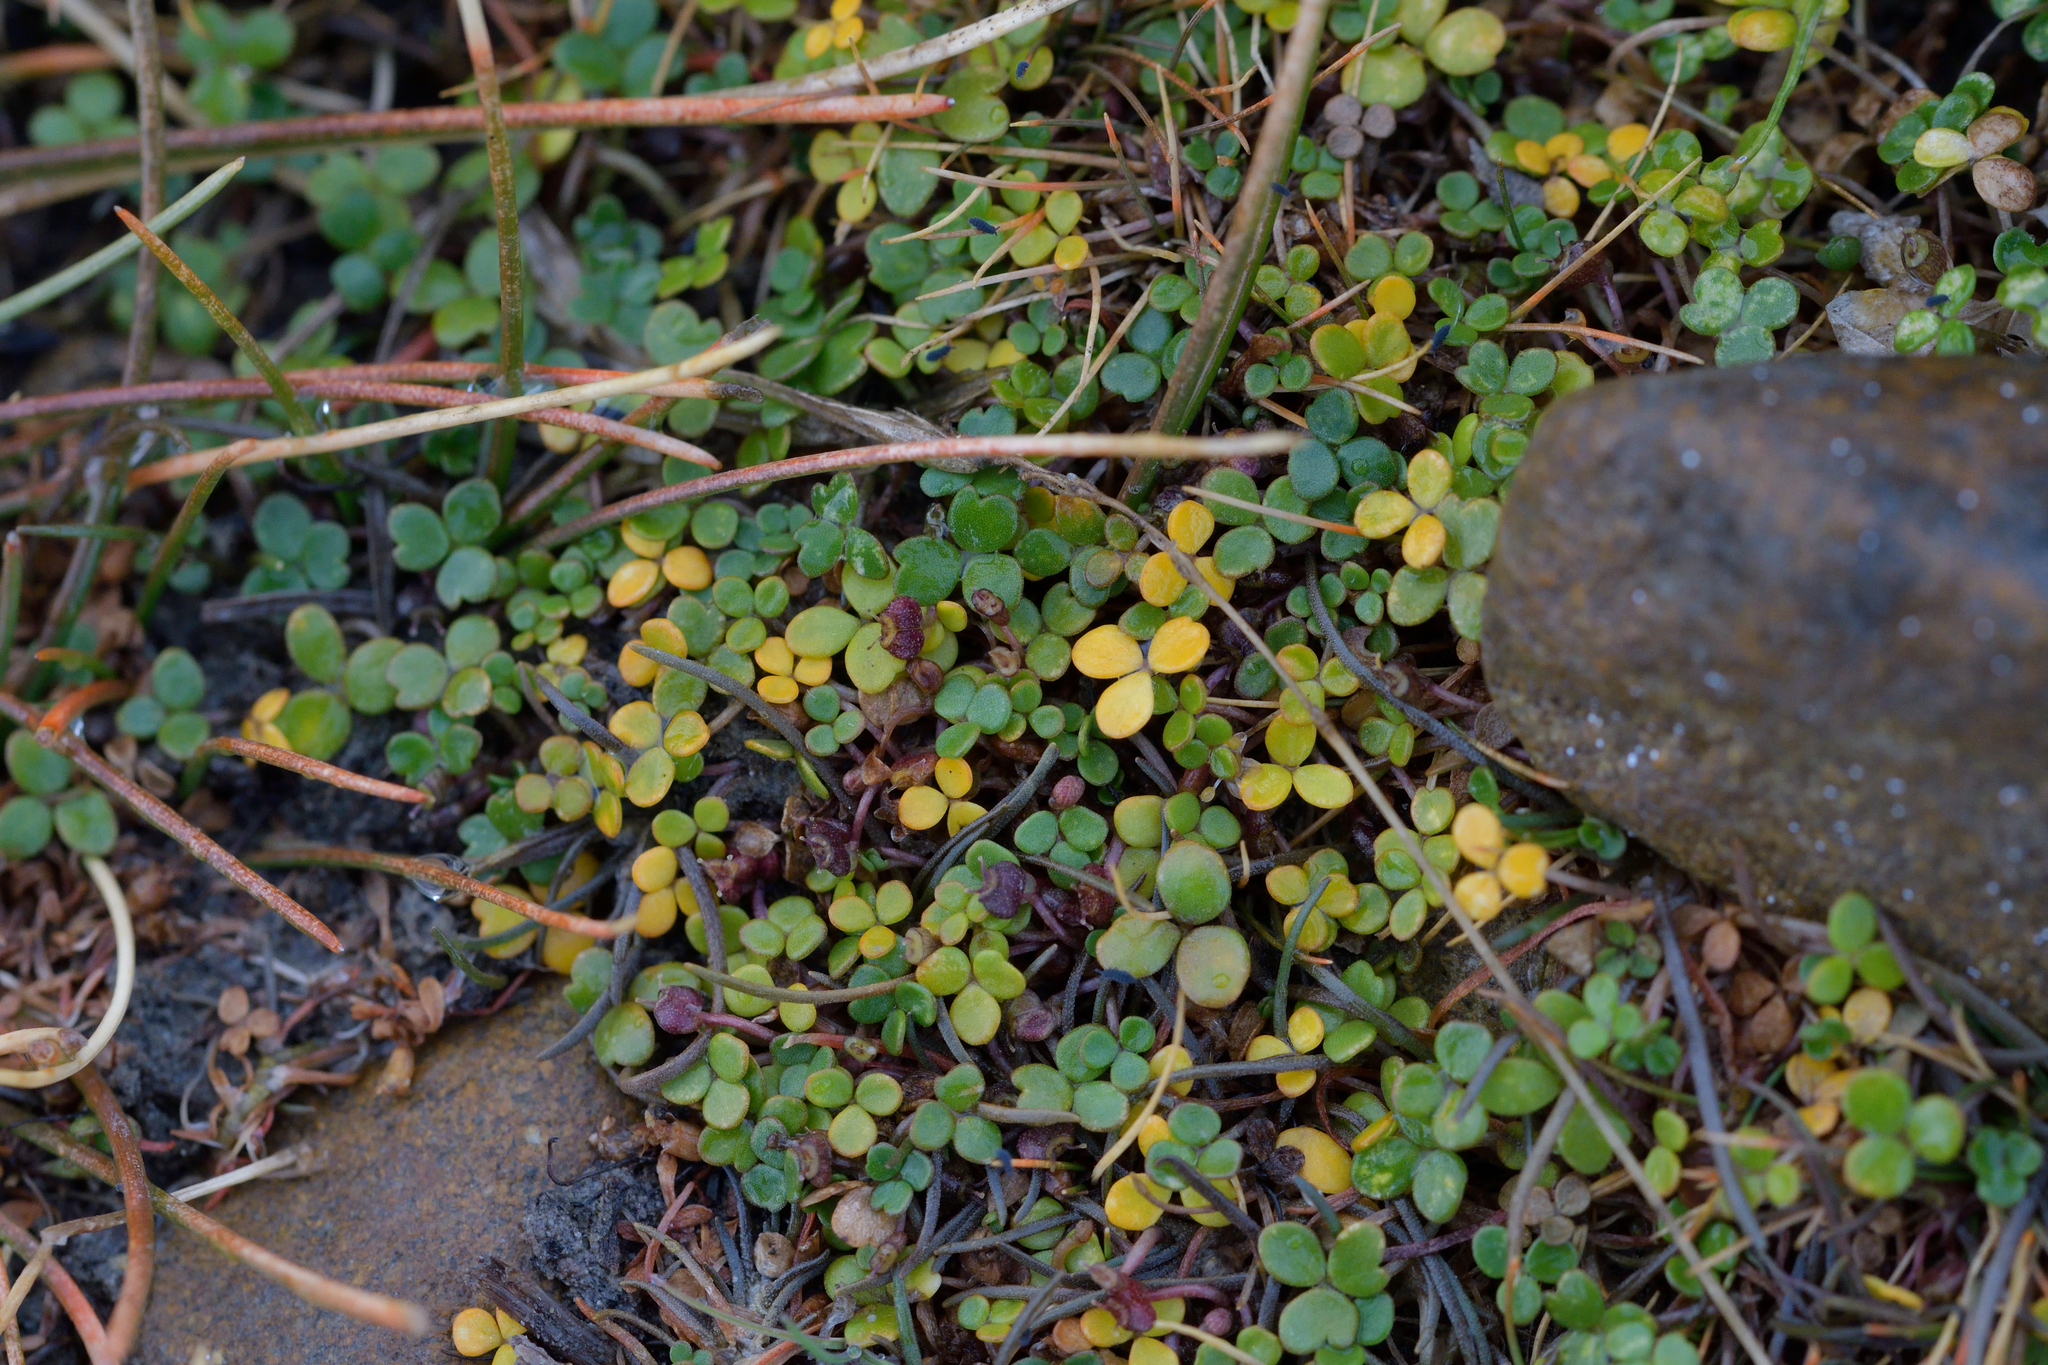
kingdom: Plantae
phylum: Tracheophyta
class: Magnoliopsida
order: Apiales
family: Araliaceae
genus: Hydrocotyle
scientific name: Hydrocotyle hydrophila
